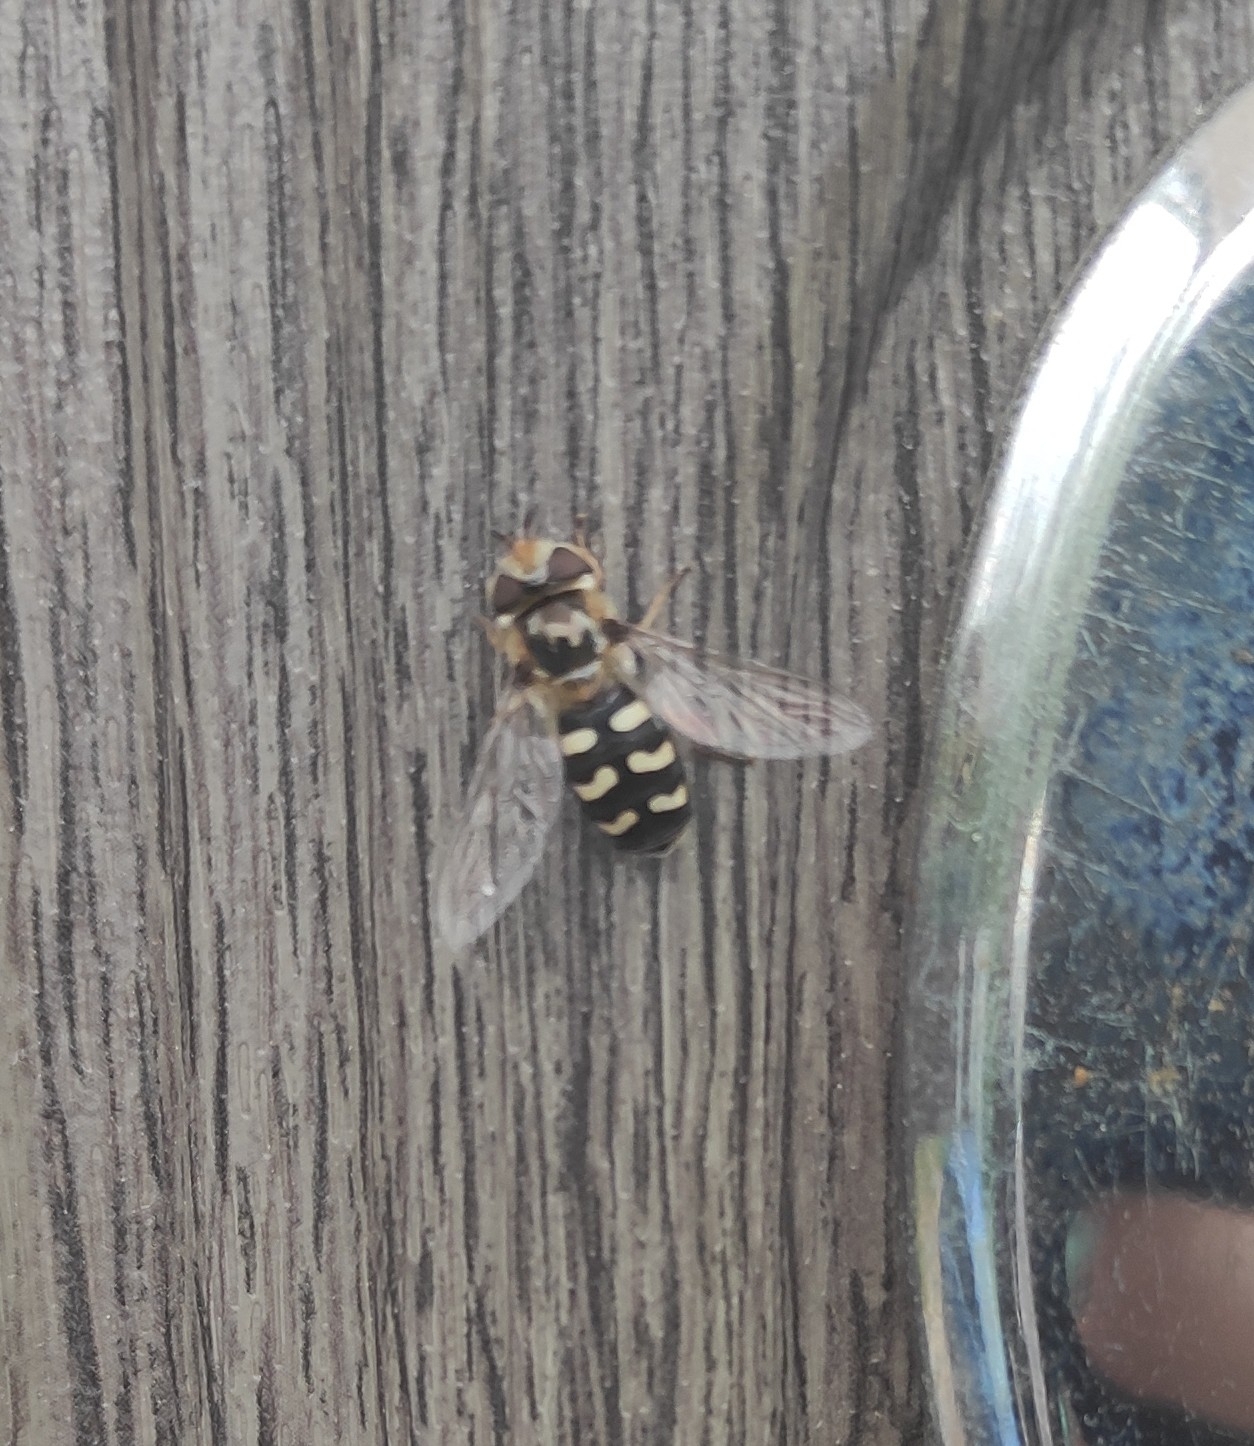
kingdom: Animalia
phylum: Arthropoda
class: Insecta
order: Diptera
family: Syrphidae
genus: Scaeva
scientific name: Scaeva pyrastri
